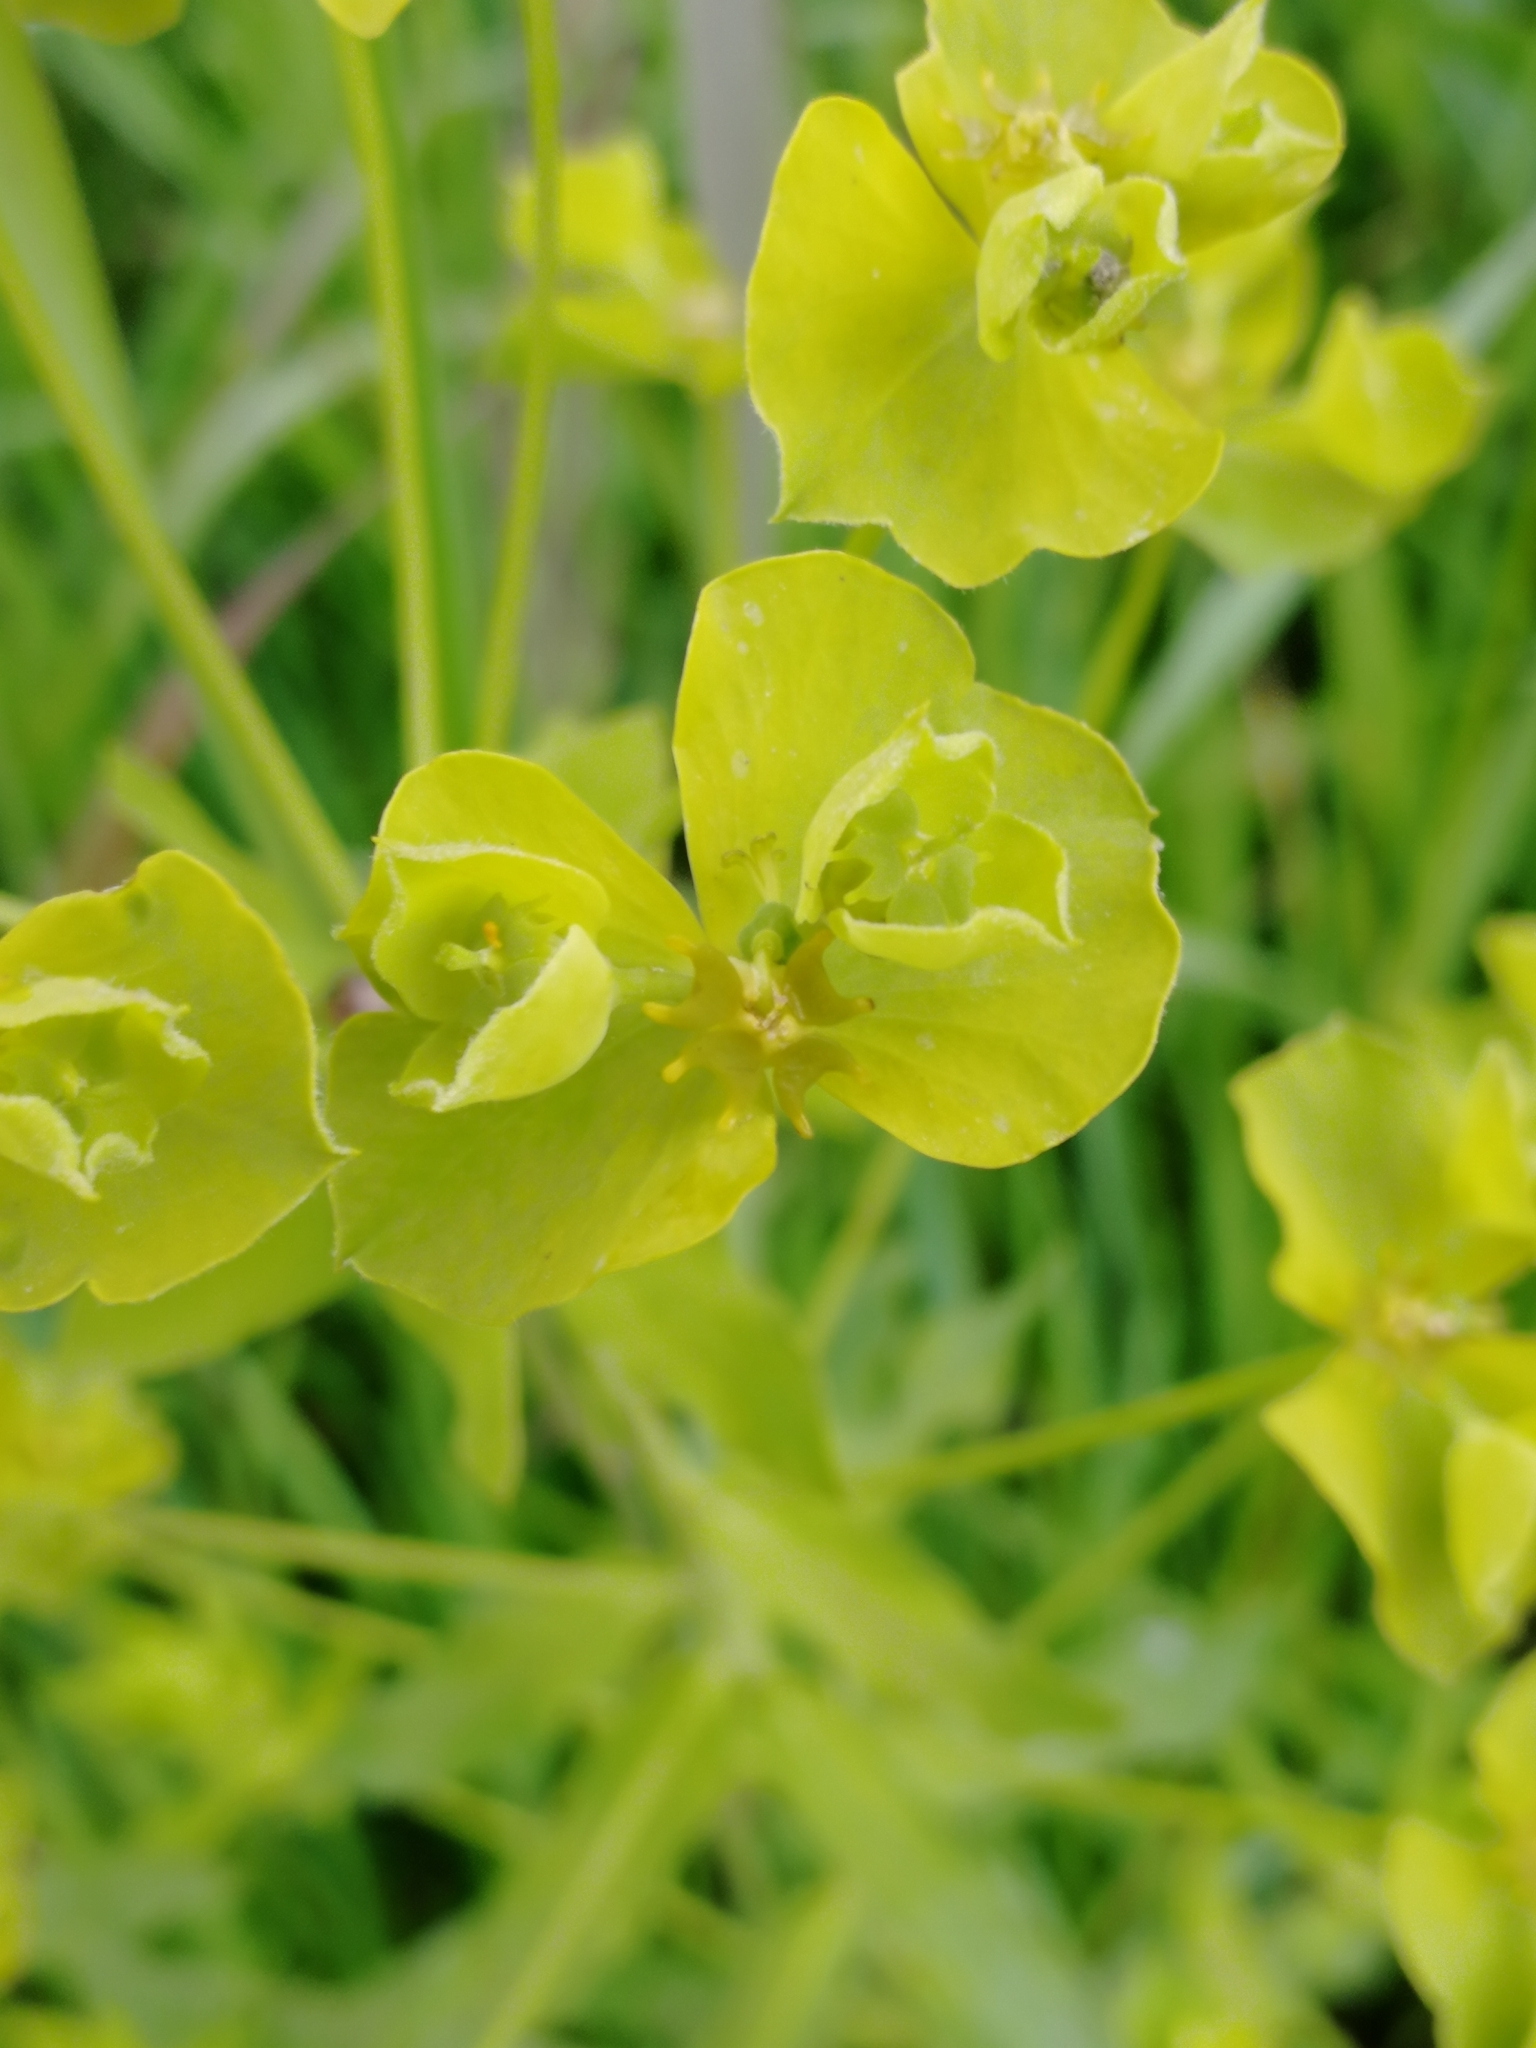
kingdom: Plantae
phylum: Tracheophyta
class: Magnoliopsida
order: Malpighiales
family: Euphorbiaceae
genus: Euphorbia
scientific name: Euphorbia virgata
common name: Leafy spurge
